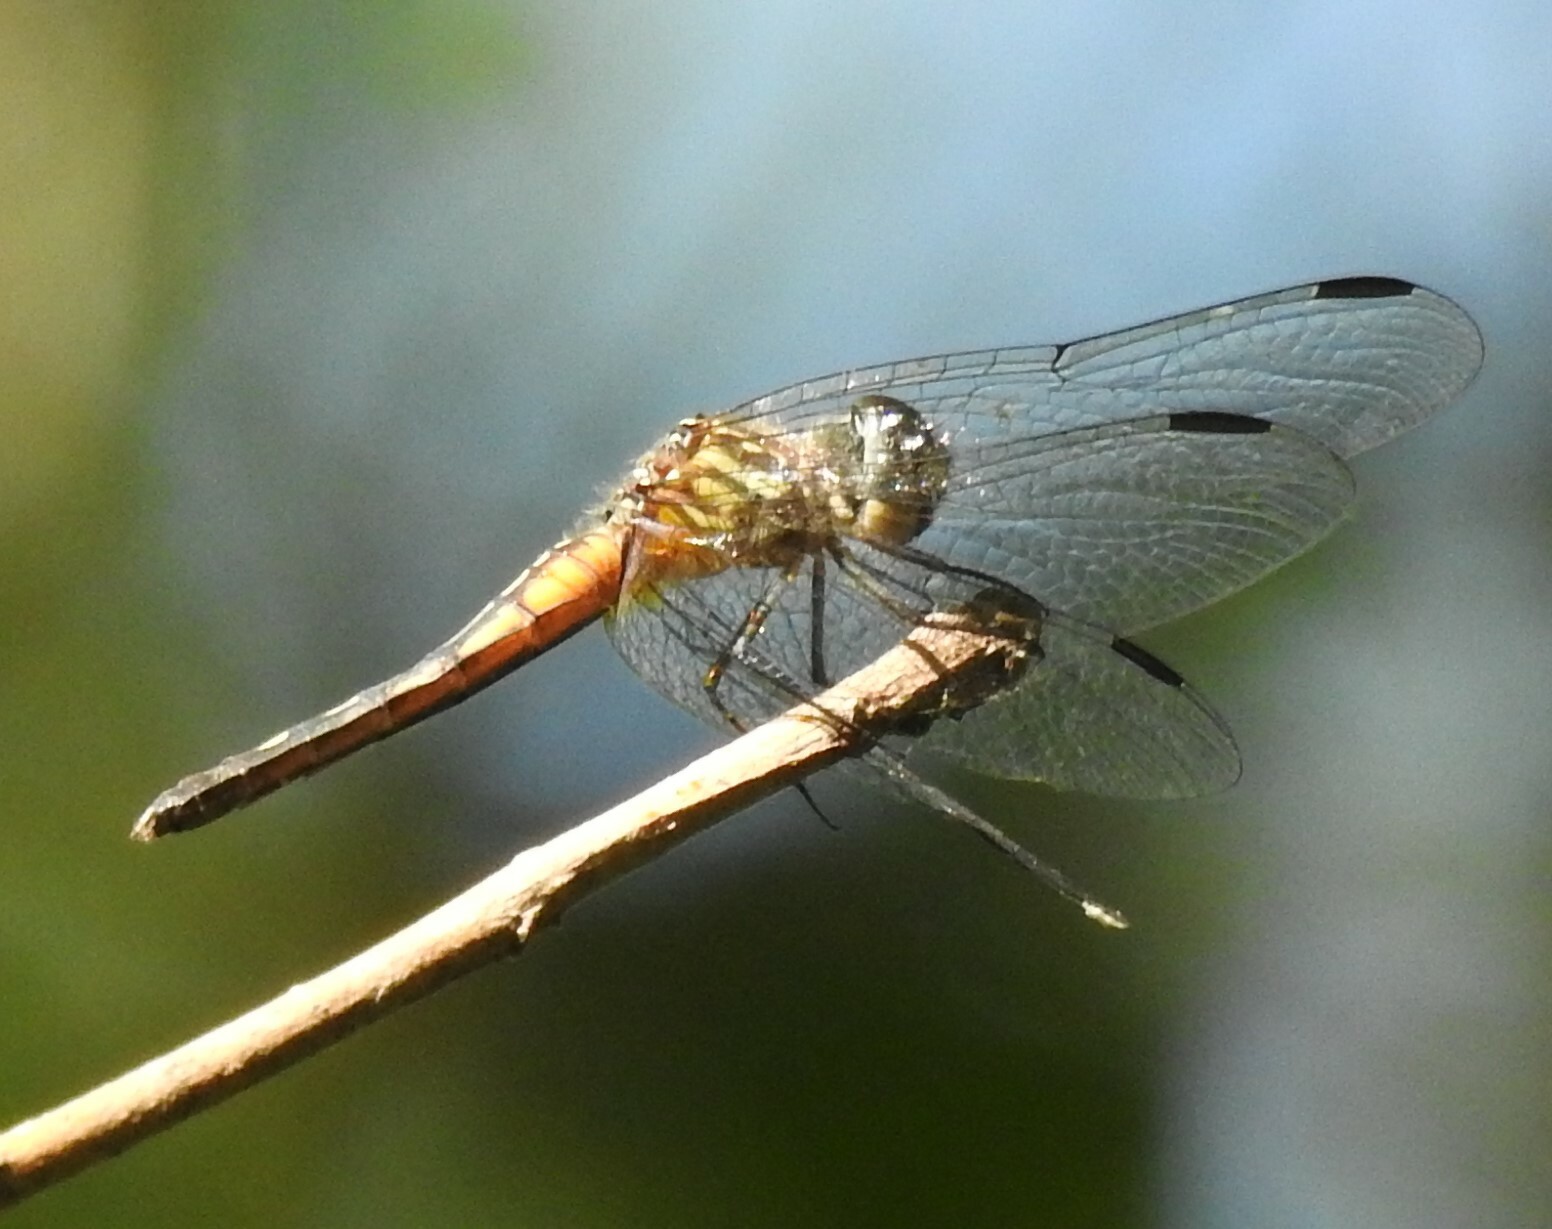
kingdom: Animalia
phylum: Arthropoda
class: Insecta
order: Odonata
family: Libellulidae
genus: Pachydiplax
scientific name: Pachydiplax longipennis
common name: Blue dasher
